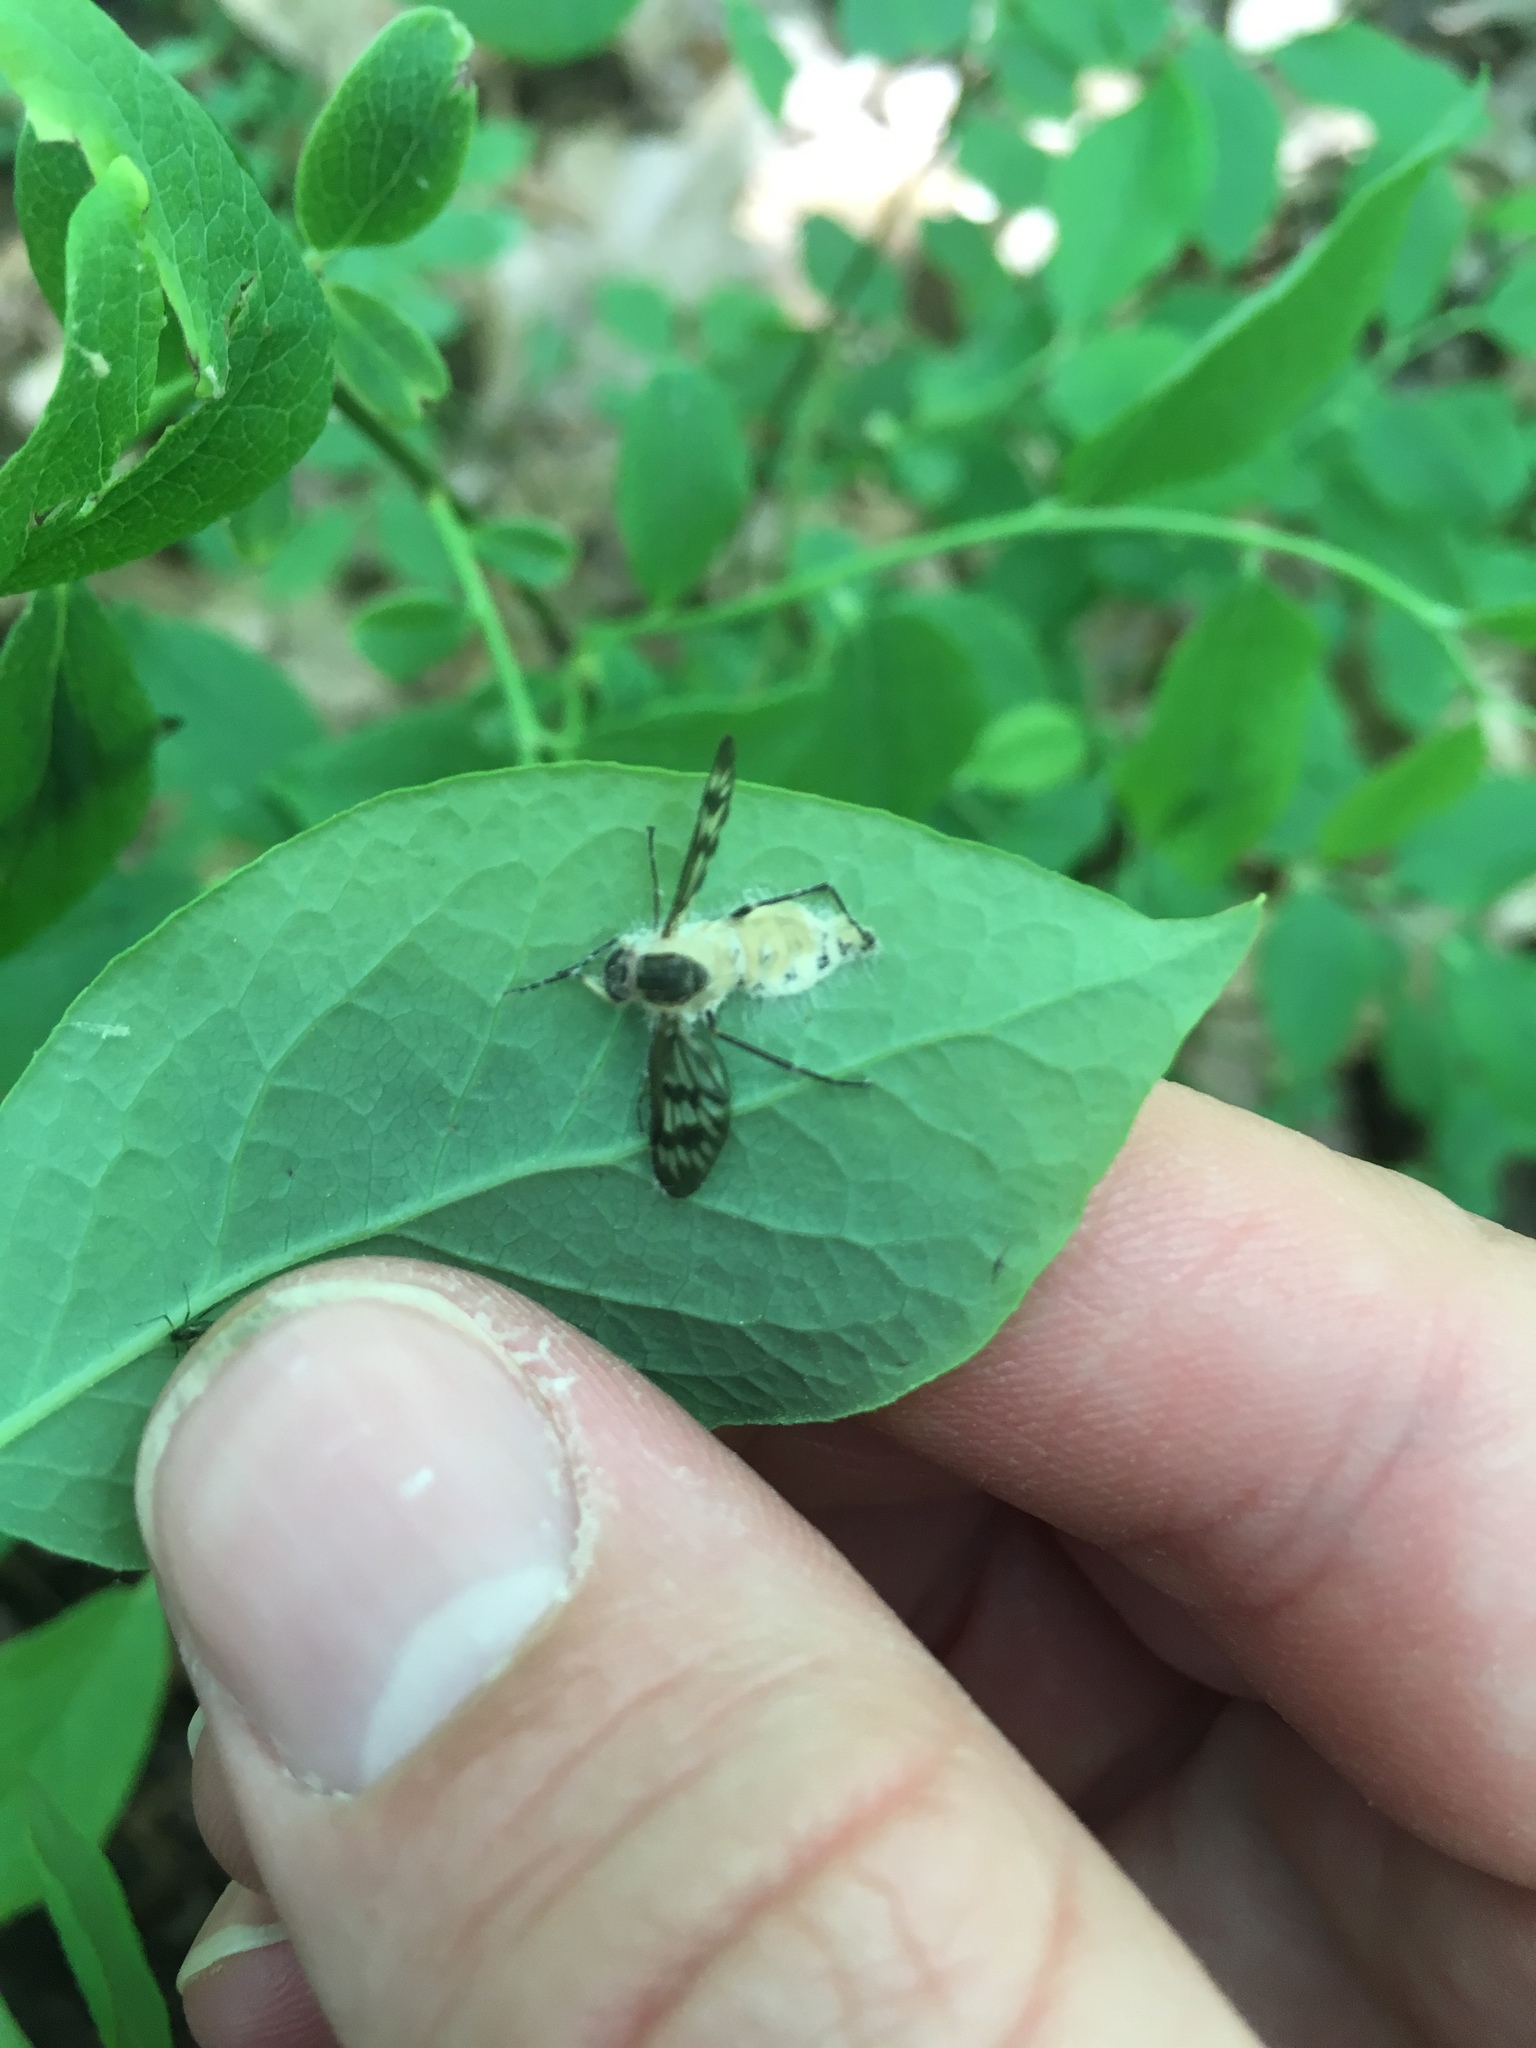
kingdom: Animalia
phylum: Arthropoda
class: Insecta
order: Diptera
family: Rhagionidae
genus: Rhagio
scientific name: Rhagio mystaceus
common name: Common snipe fly
